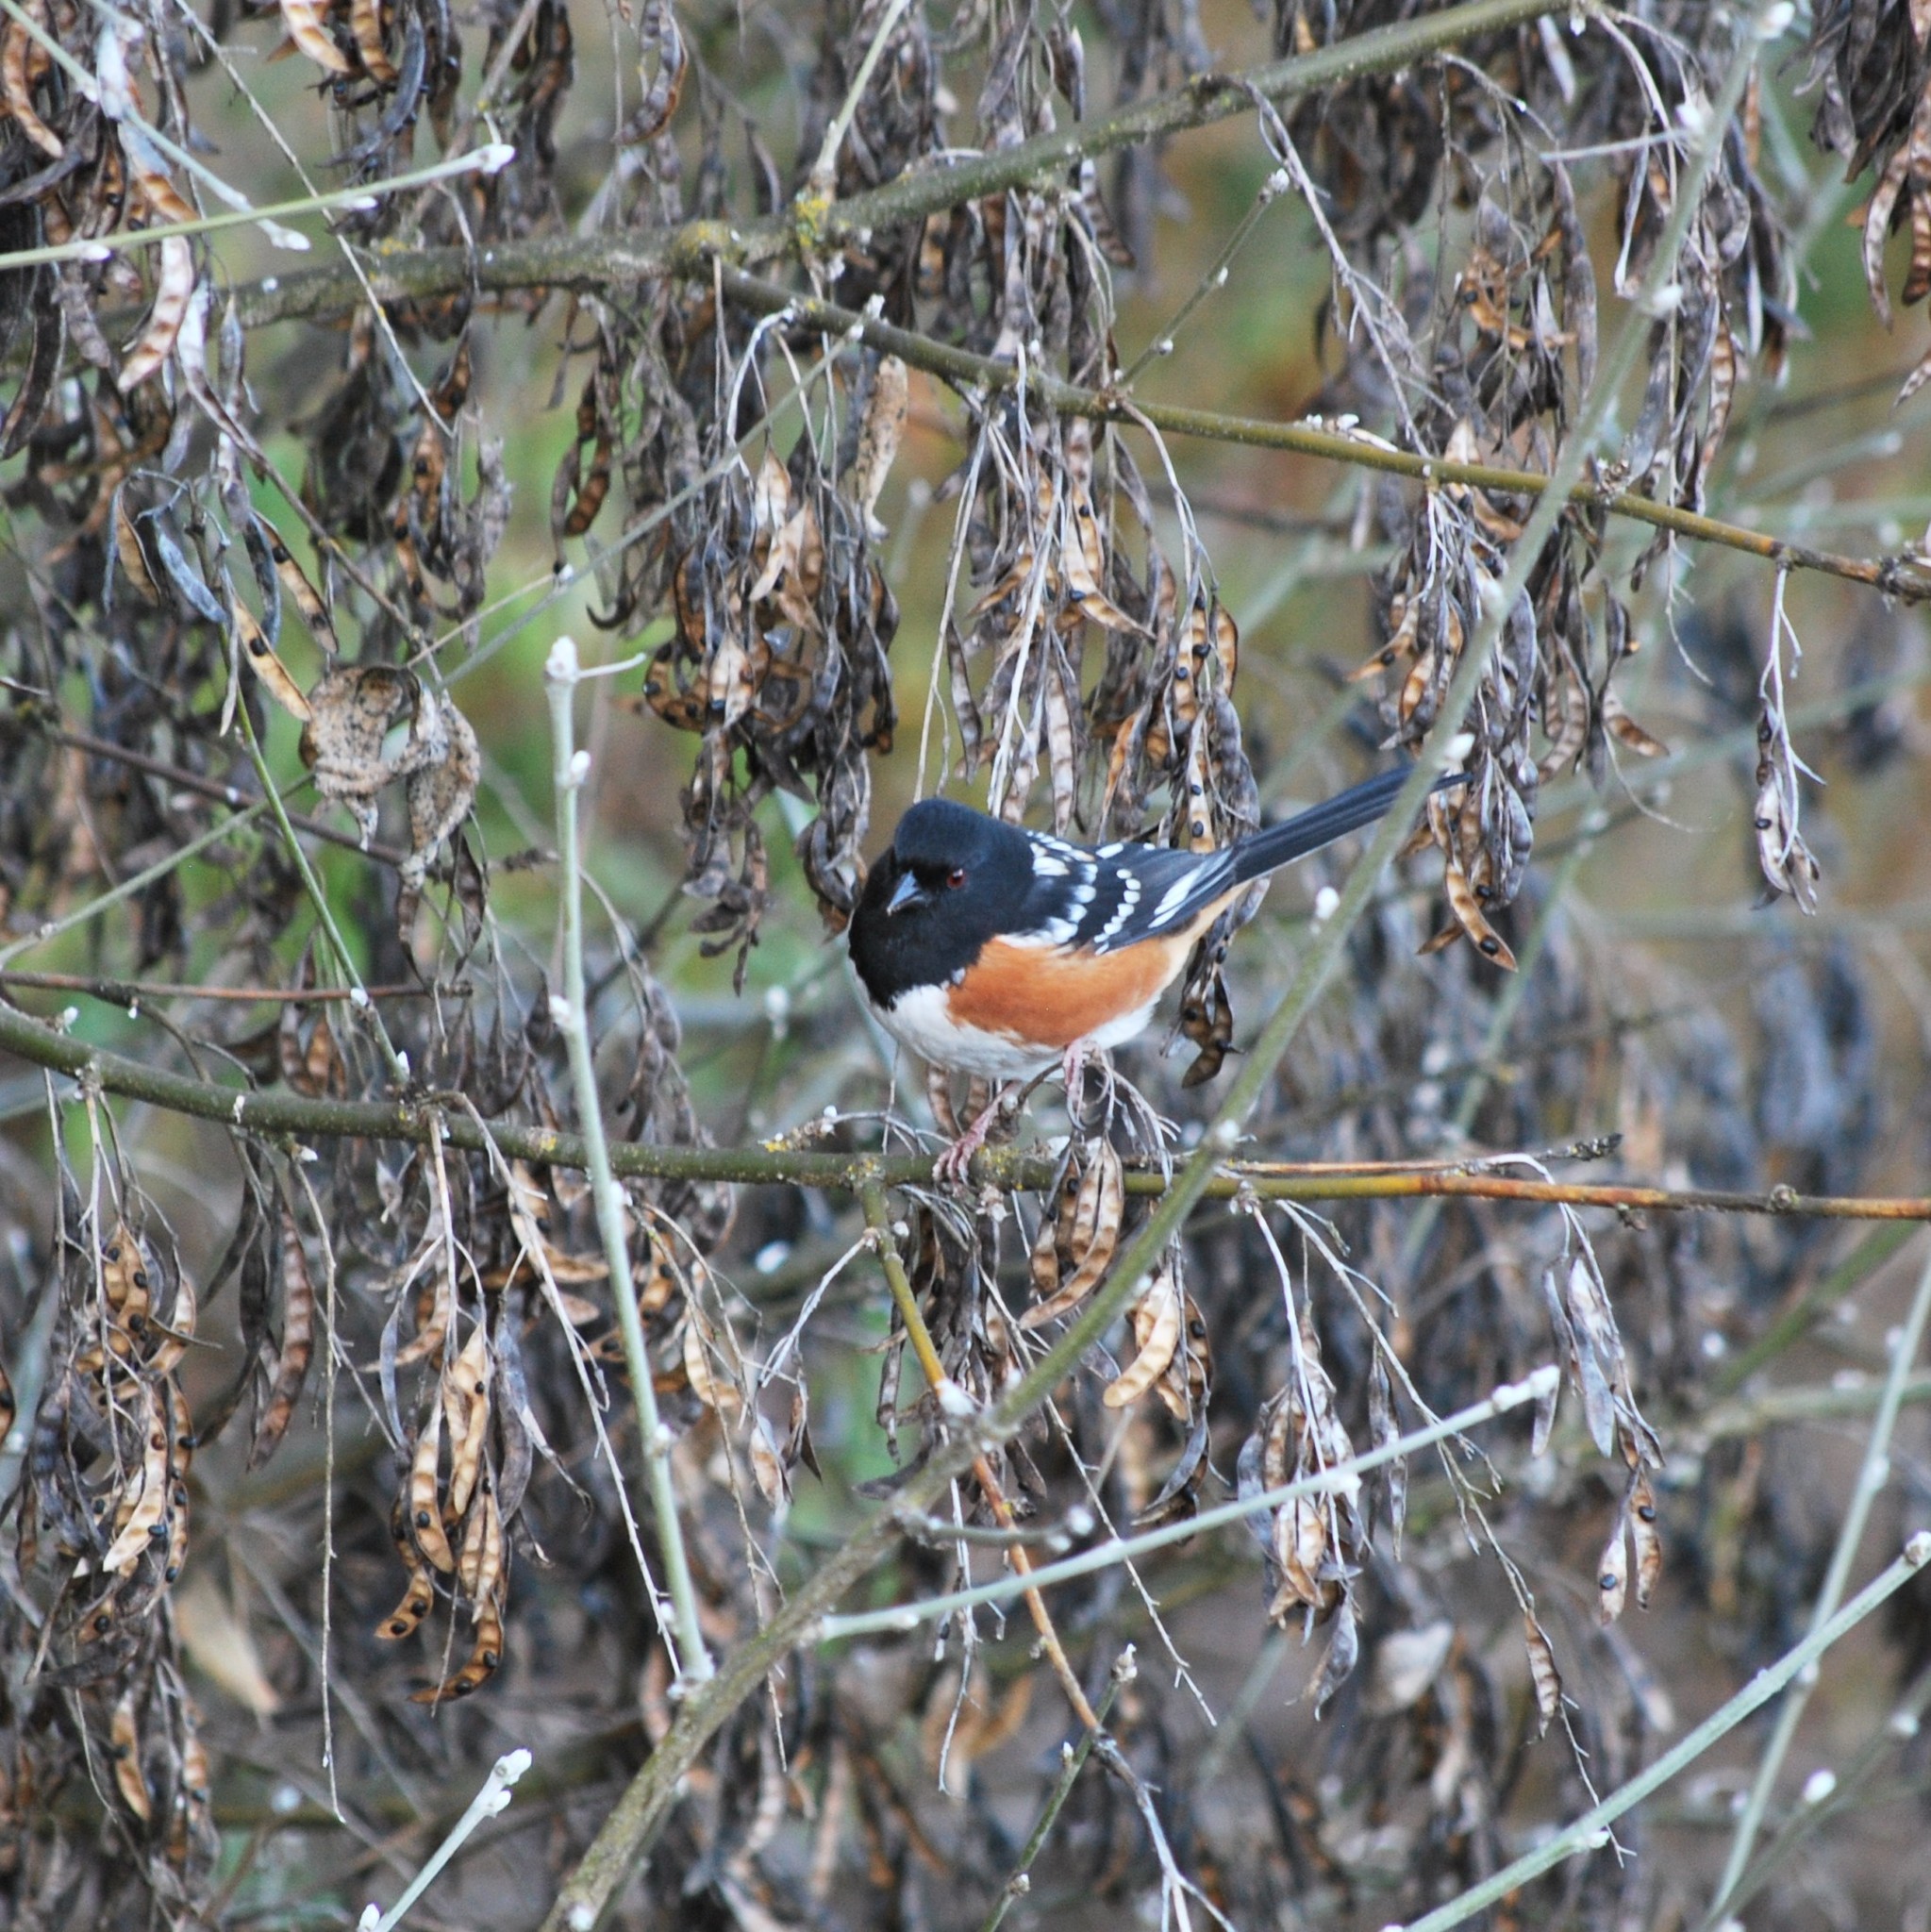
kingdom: Animalia
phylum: Chordata
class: Aves
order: Passeriformes
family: Passerellidae
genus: Pipilo
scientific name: Pipilo maculatus
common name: Spotted towhee
